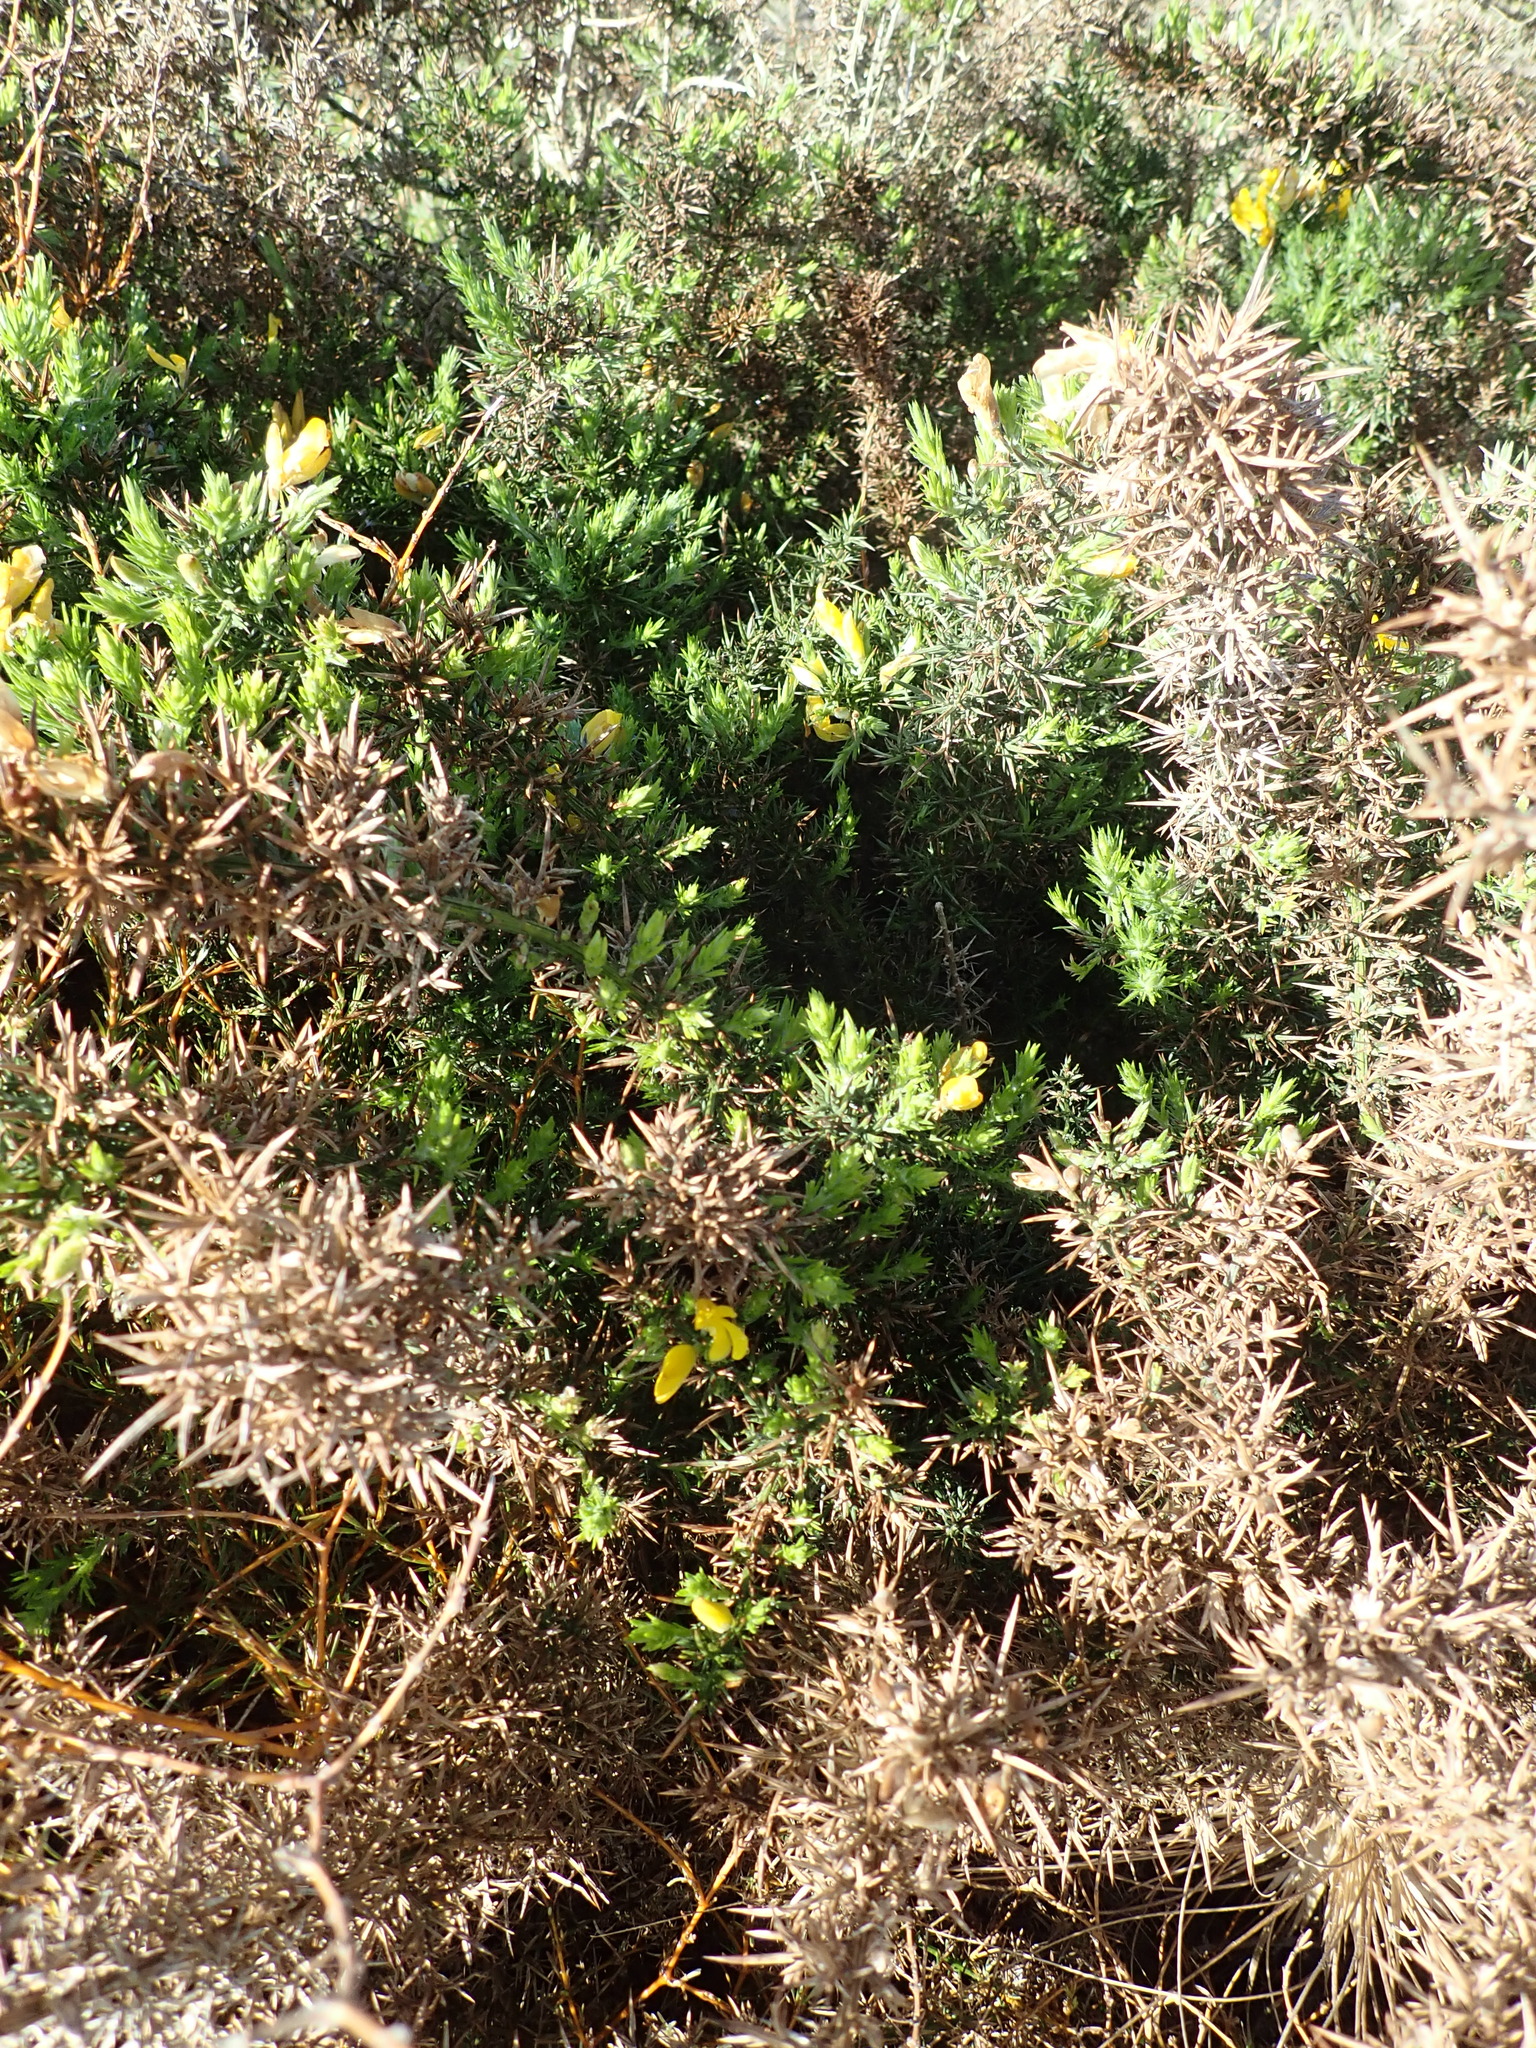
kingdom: Plantae
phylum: Tracheophyta
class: Magnoliopsida
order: Fabales
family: Fabaceae
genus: Ulex
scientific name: Ulex europaeus
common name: Common gorse
